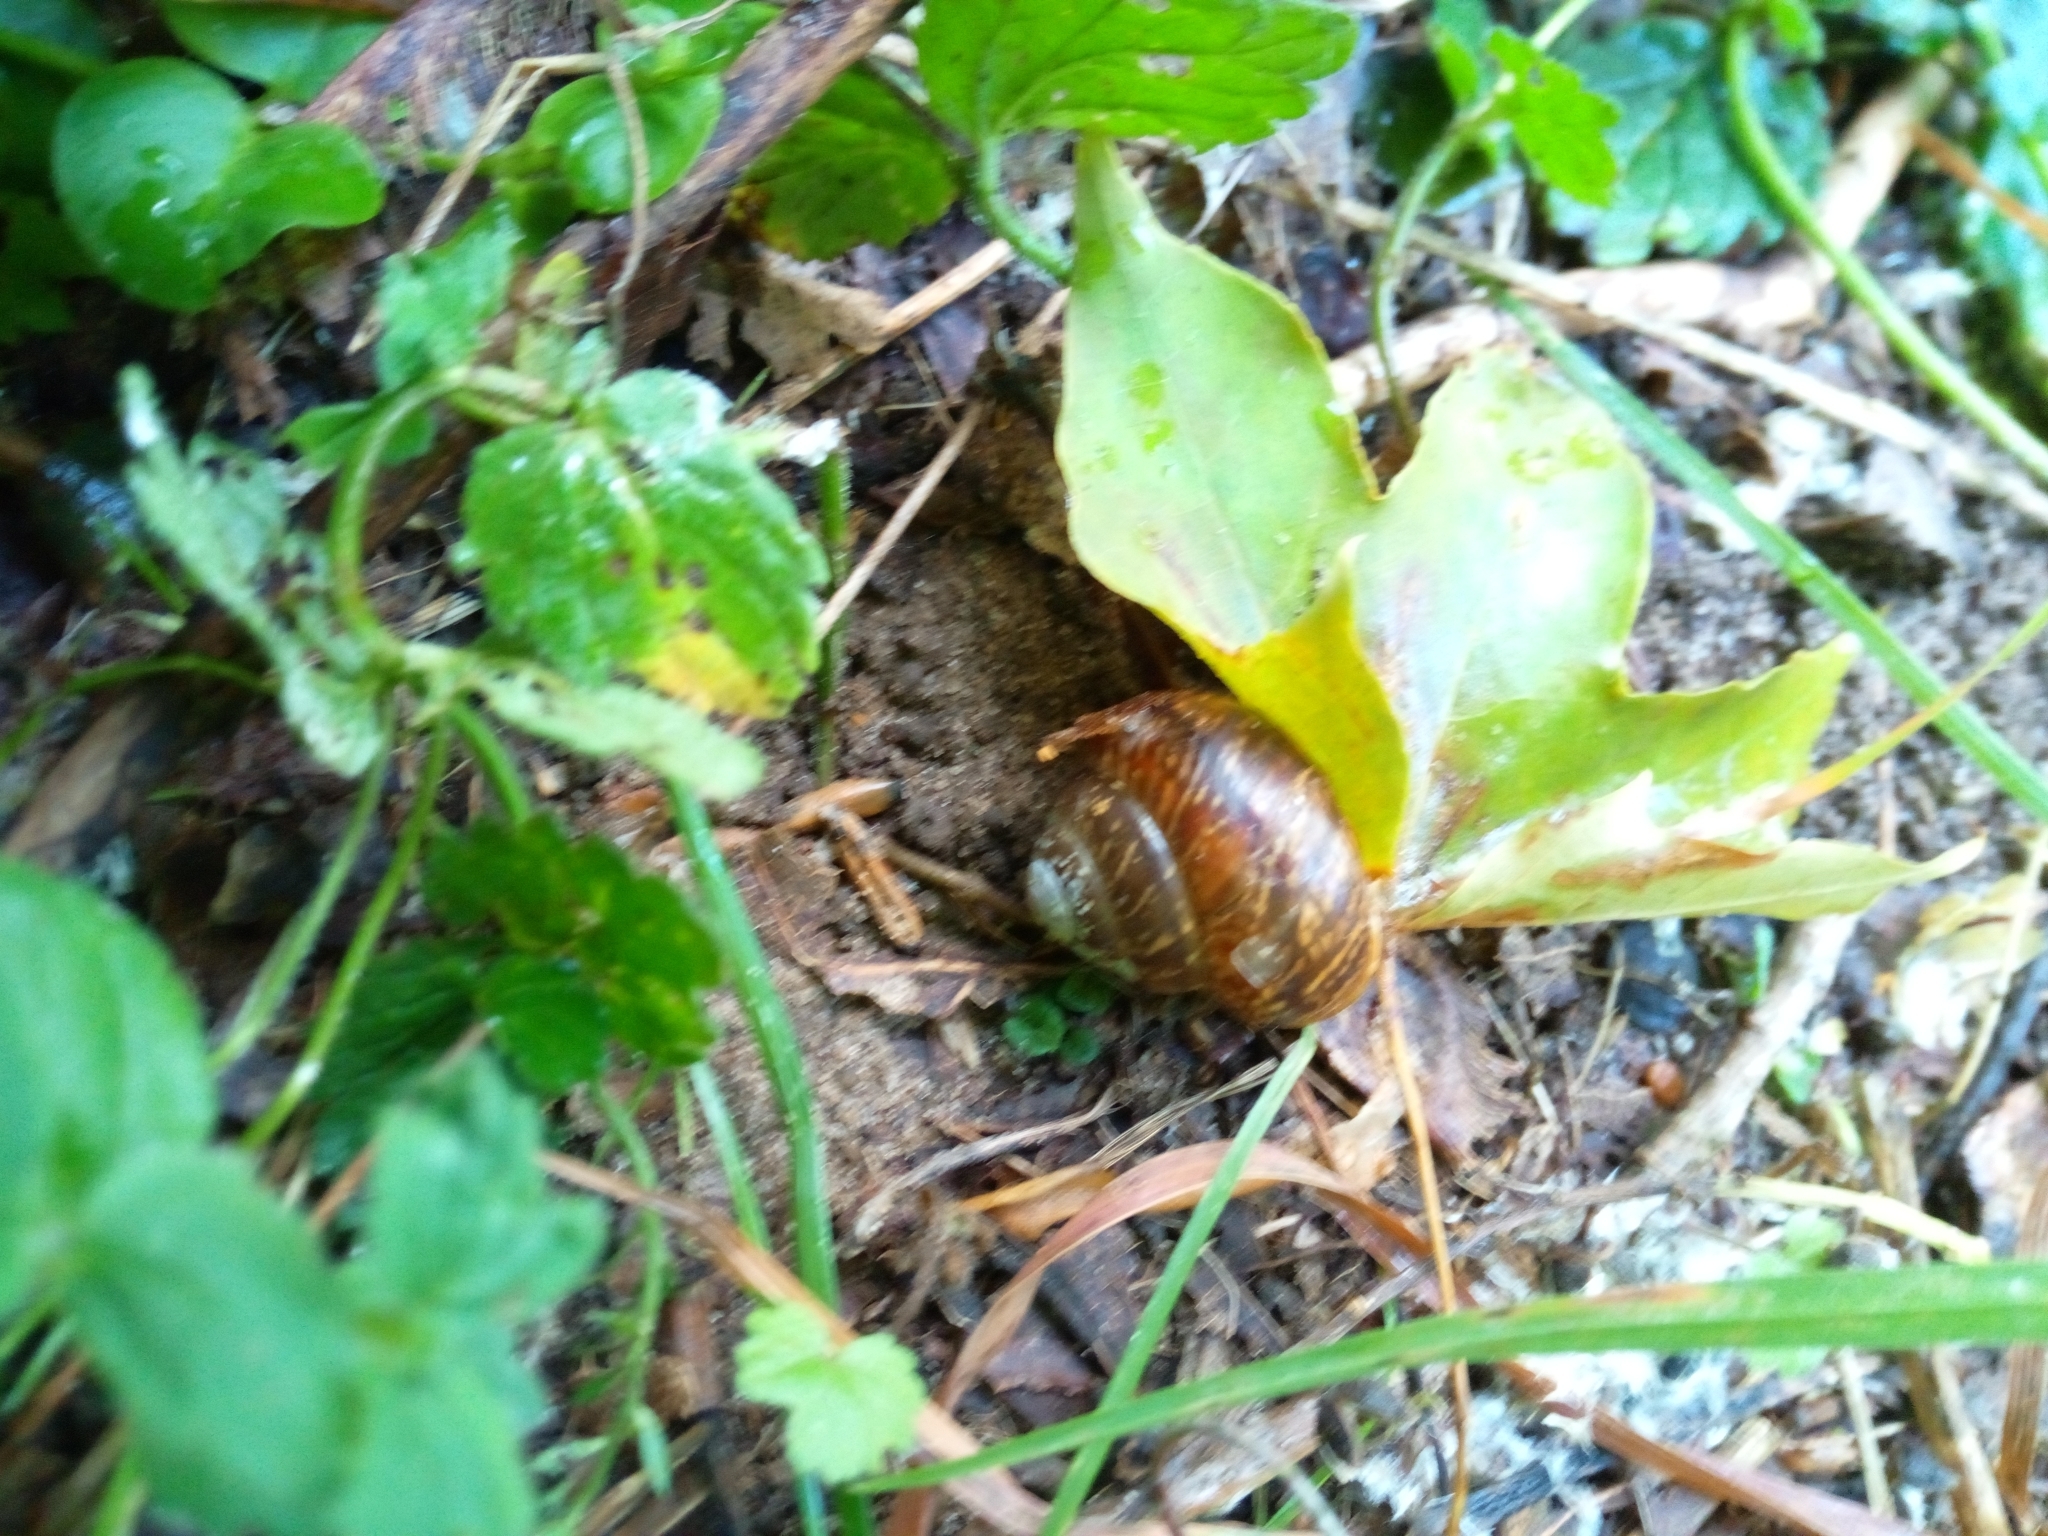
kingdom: Animalia
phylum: Mollusca
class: Gastropoda
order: Stylommatophora
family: Helicidae
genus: Arianta
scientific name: Arianta arbustorum
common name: Copse snail
